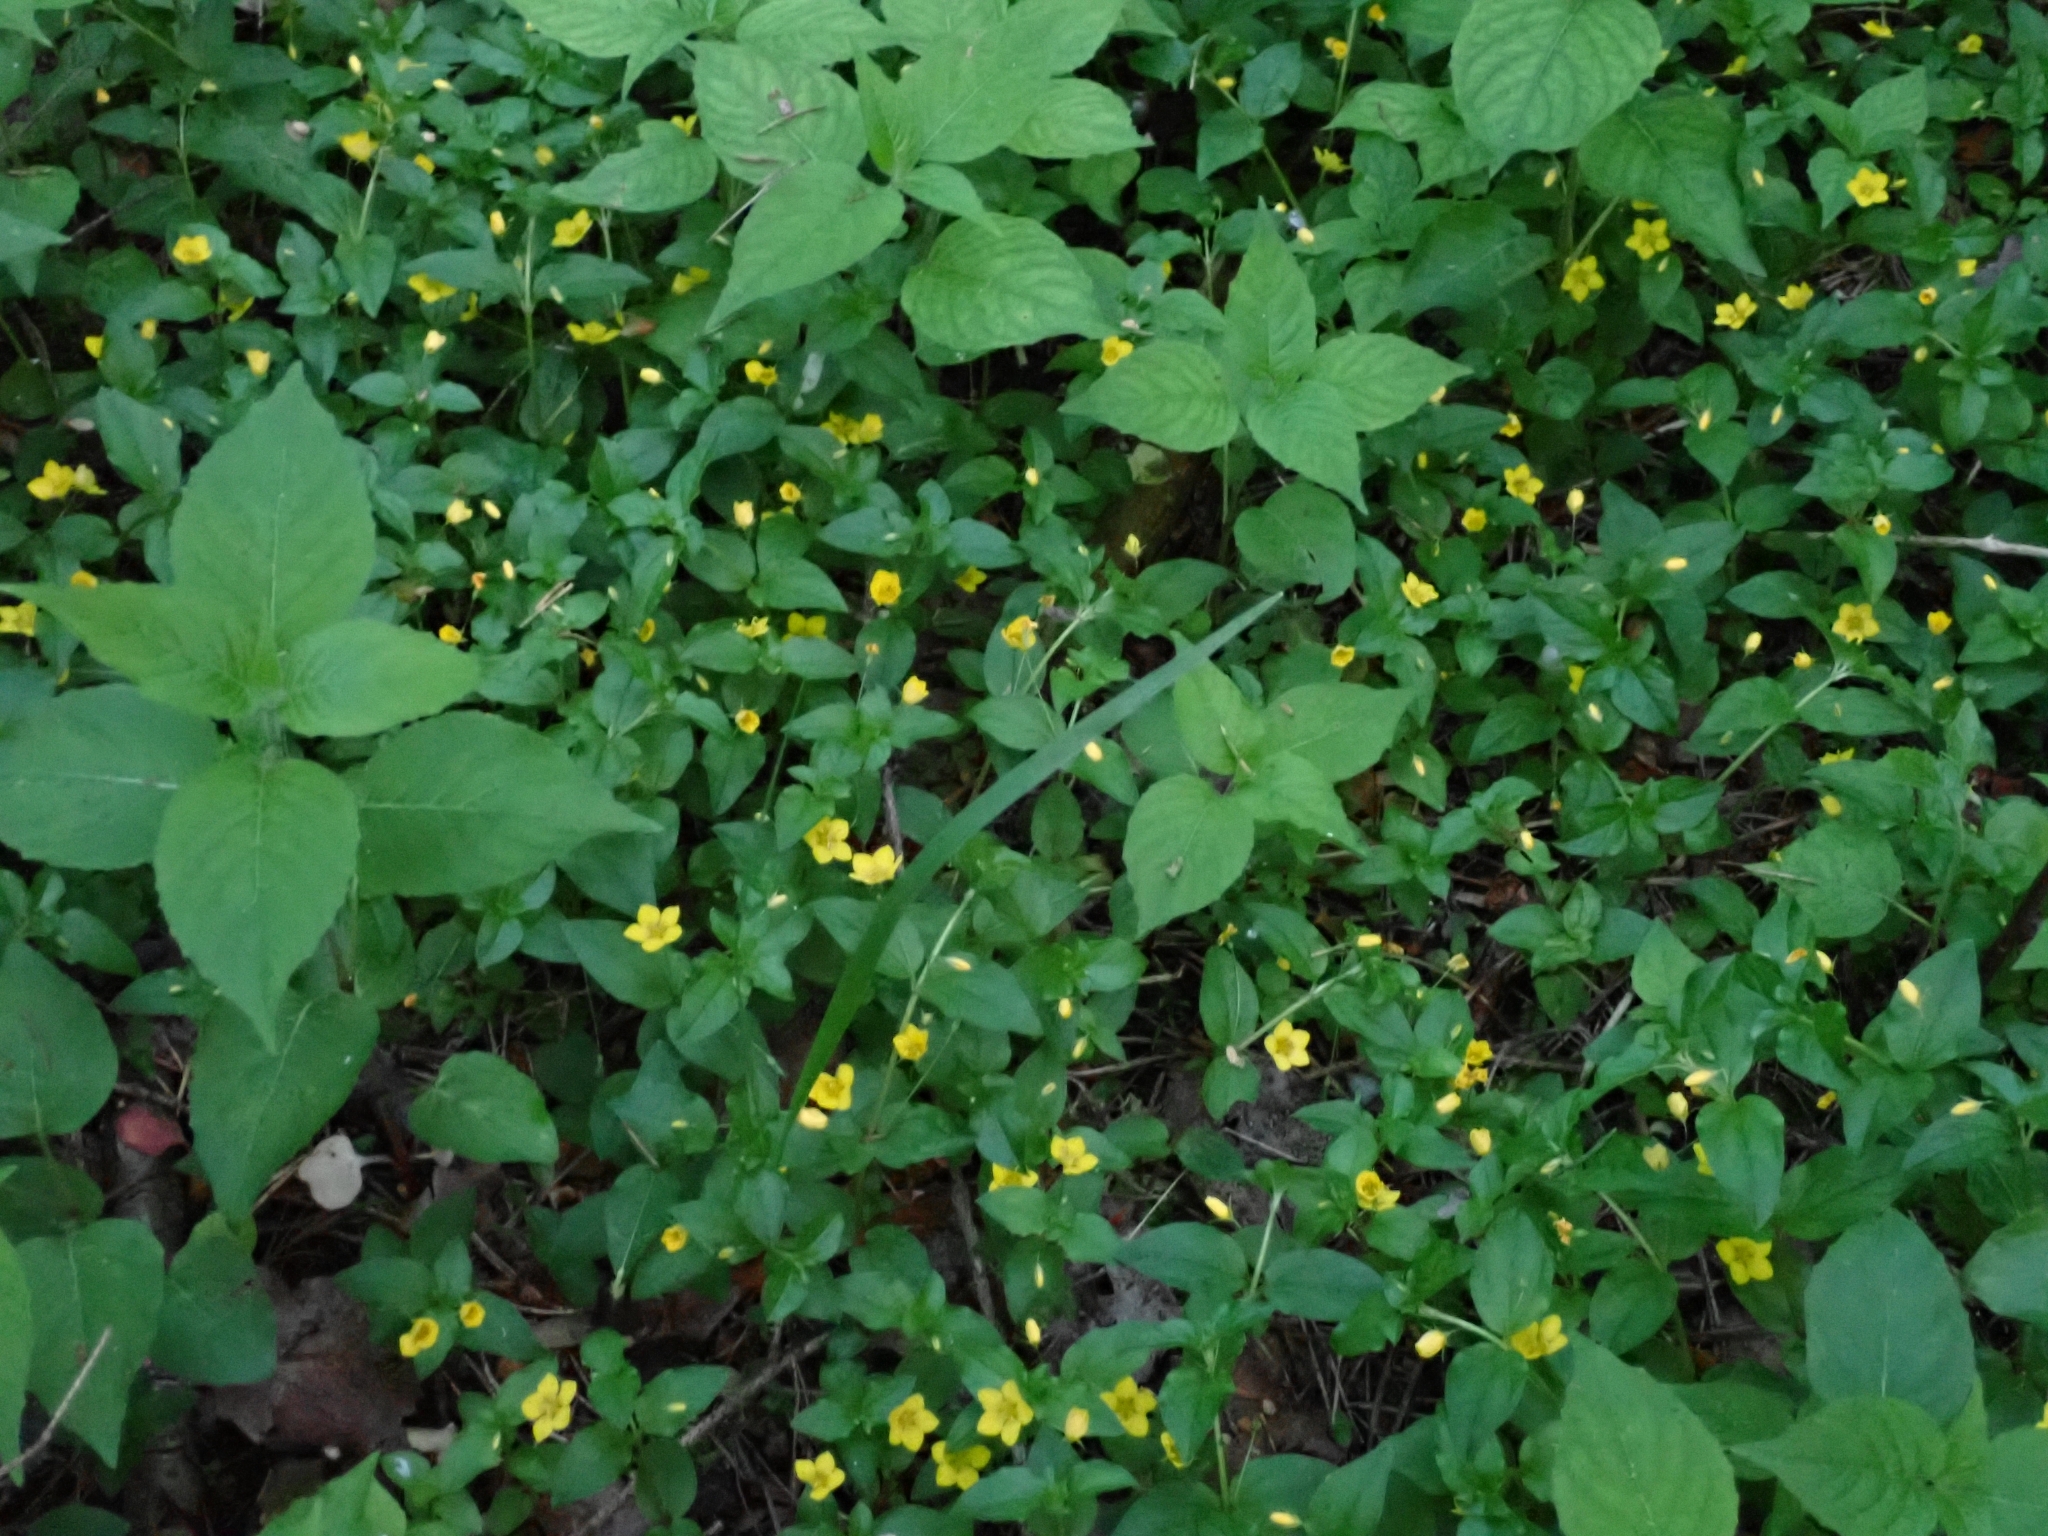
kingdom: Plantae
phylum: Tracheophyta
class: Magnoliopsida
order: Ericales
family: Primulaceae
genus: Lysimachia
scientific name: Lysimachia nemorum
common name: Yellow pimpernel
